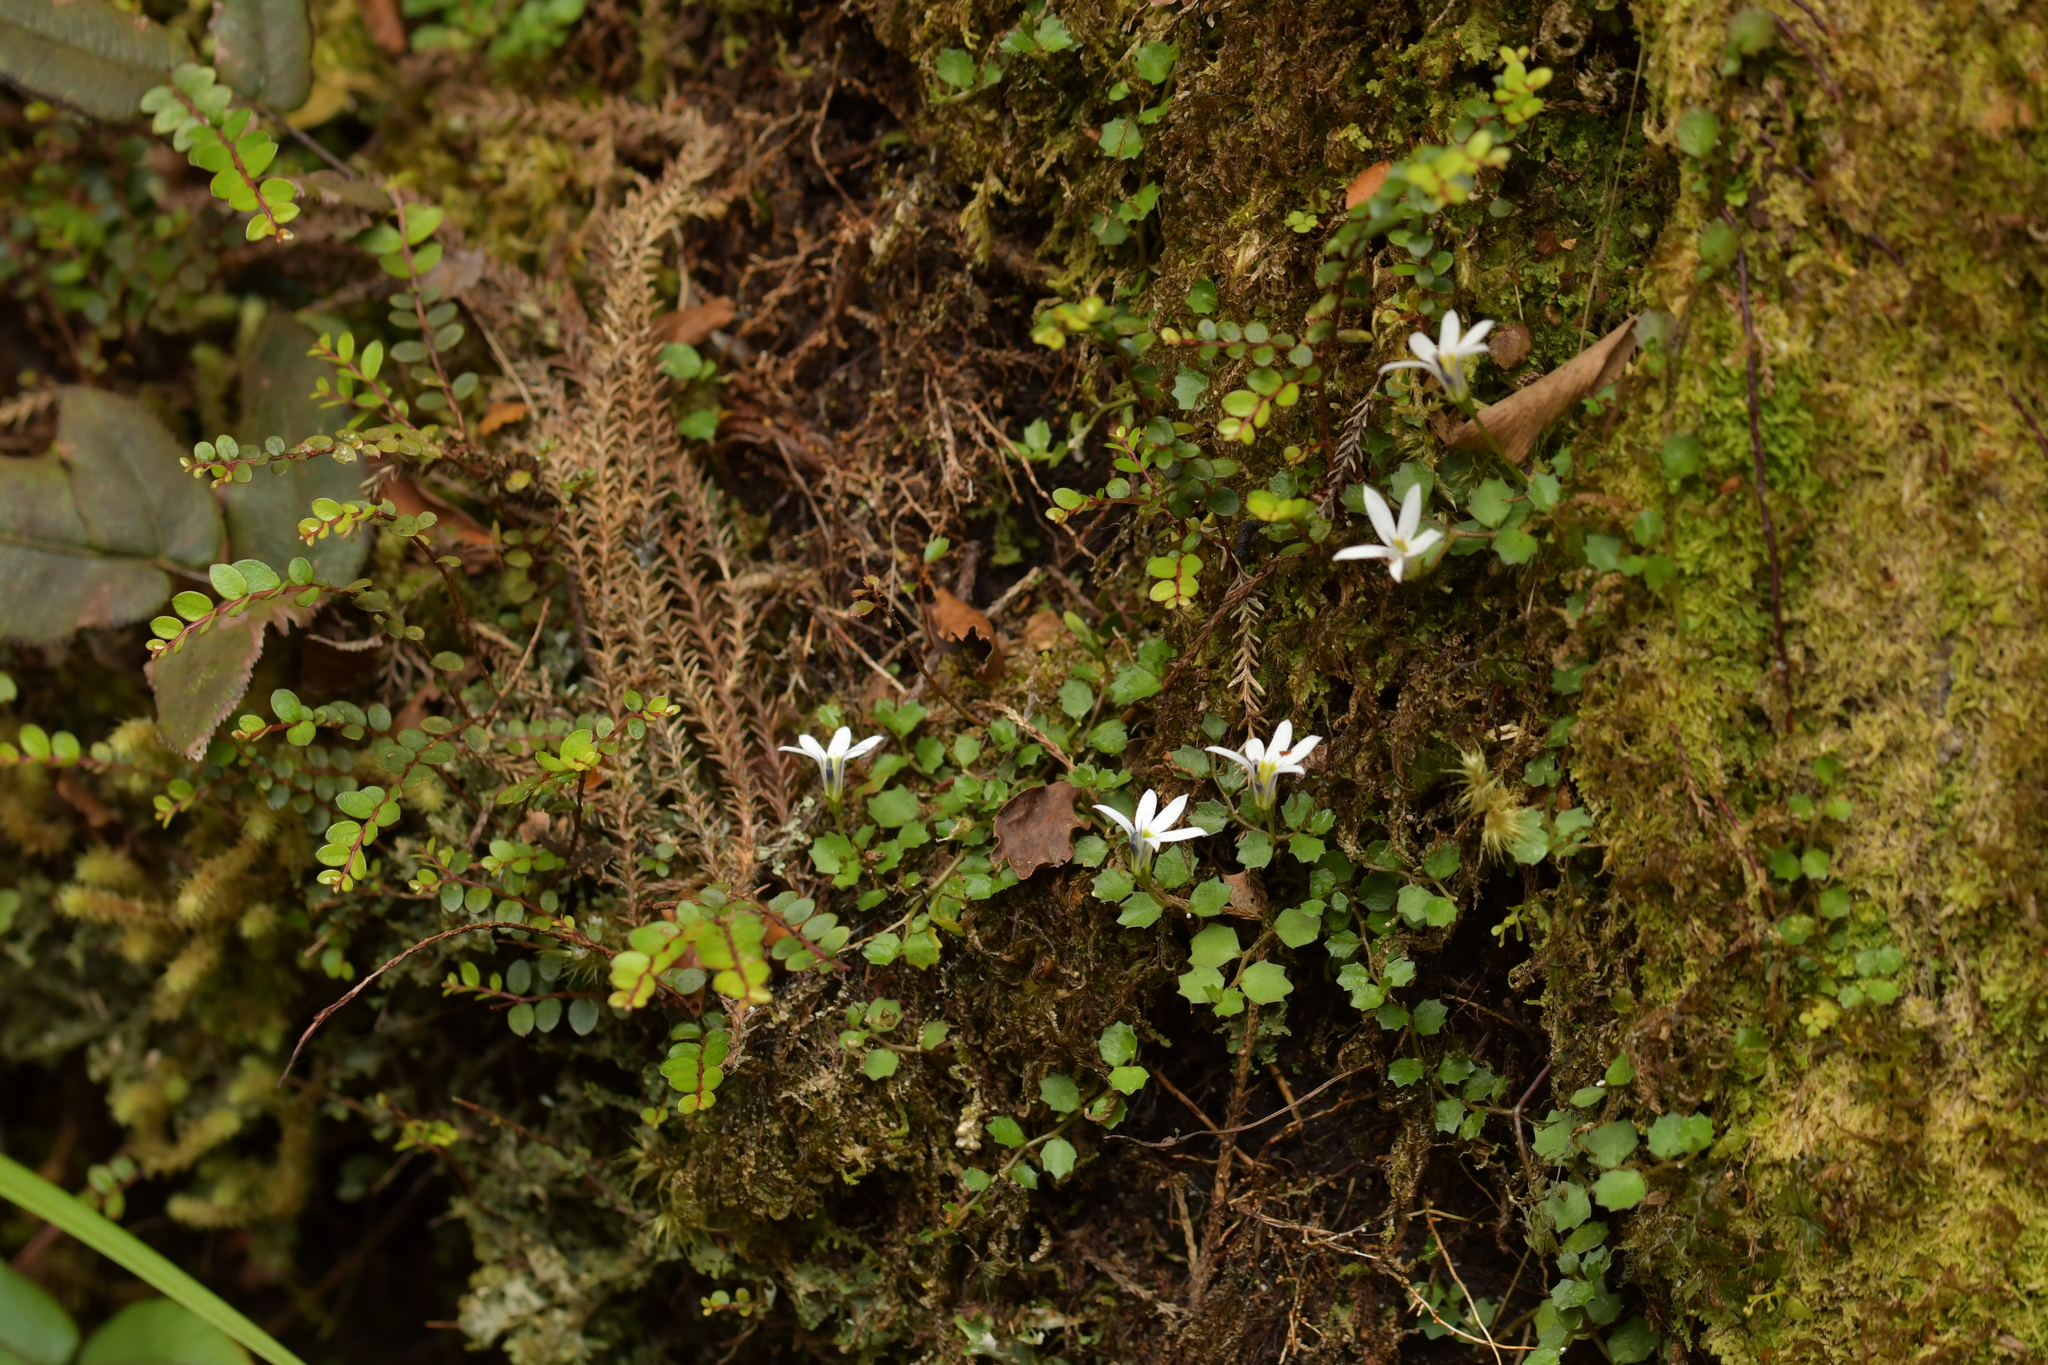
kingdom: Plantae
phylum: Tracheophyta
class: Magnoliopsida
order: Asterales
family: Campanulaceae
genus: Lobelia
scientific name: Lobelia angulata
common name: Lawn lobelia
